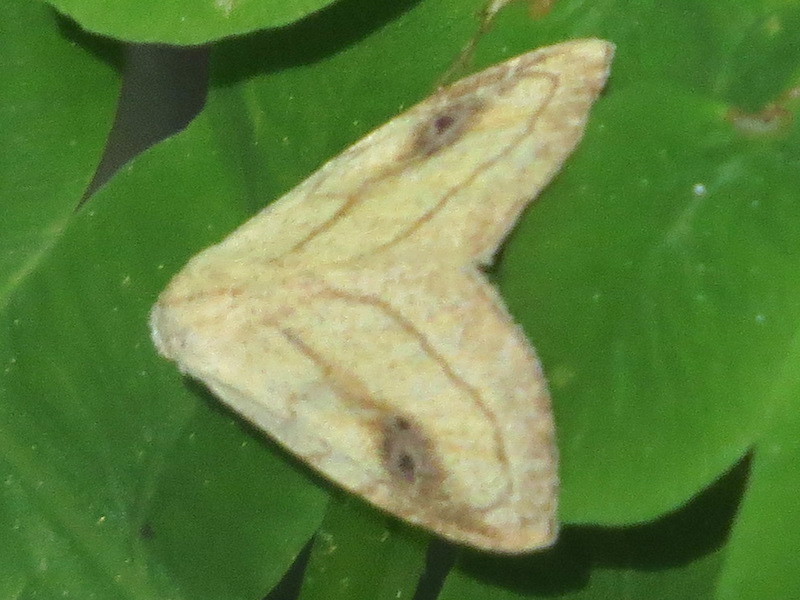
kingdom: Animalia
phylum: Arthropoda
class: Insecta
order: Lepidoptera
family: Erebidae
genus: Rivula
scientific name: Rivula propinqualis
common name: Spotted grass moth
